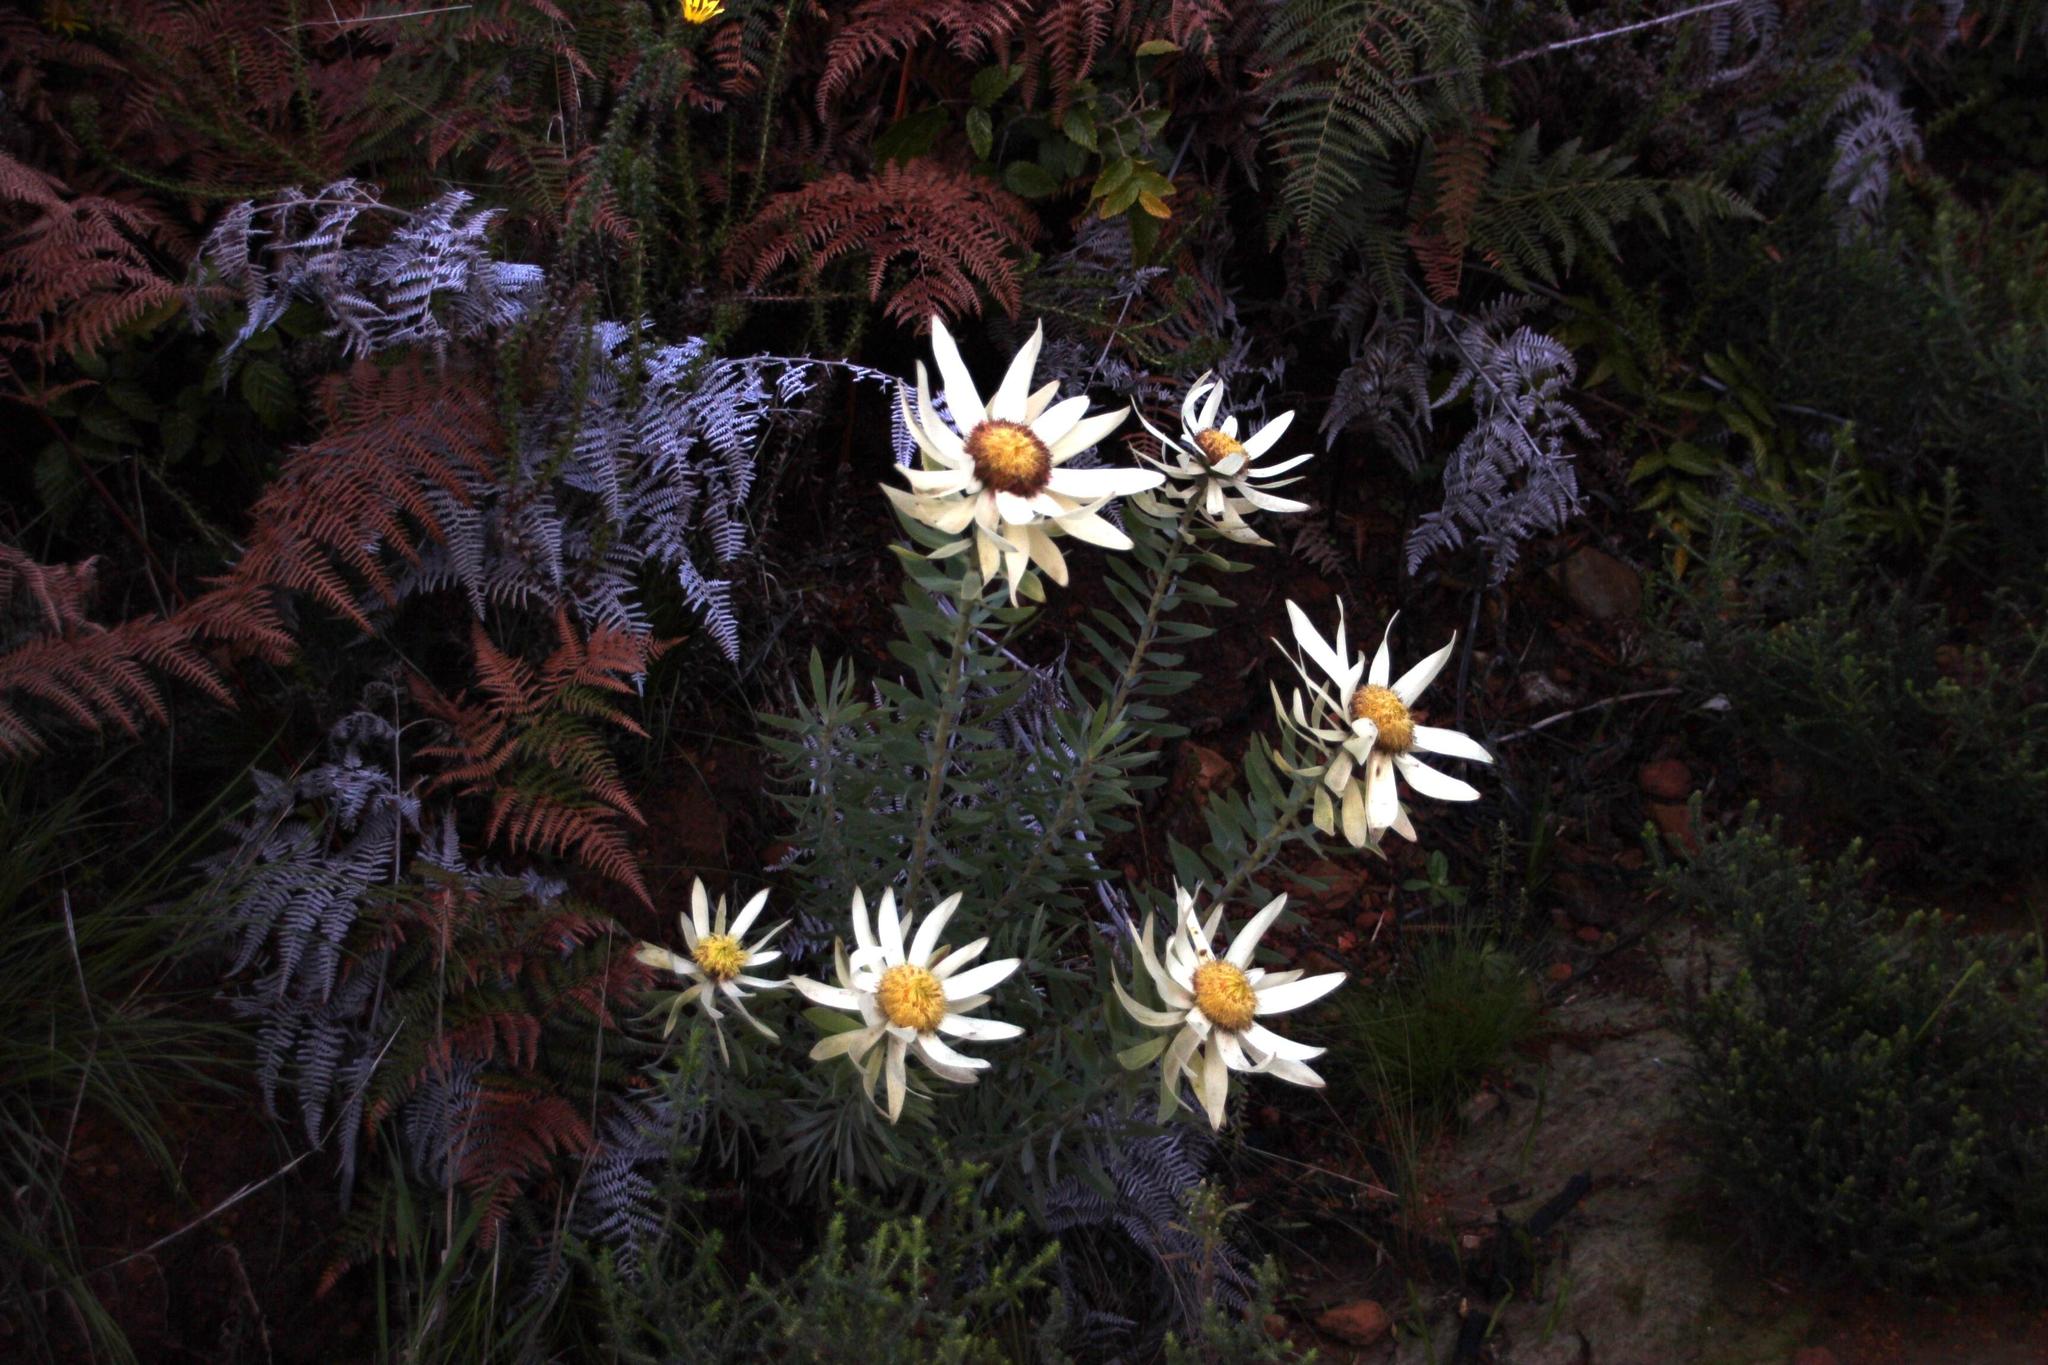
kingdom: Plantae
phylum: Tracheophyta
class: Magnoliopsida
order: Proteales
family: Proteaceae
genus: Leucadendron
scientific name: Leucadendron sessile
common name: Western sunbush
